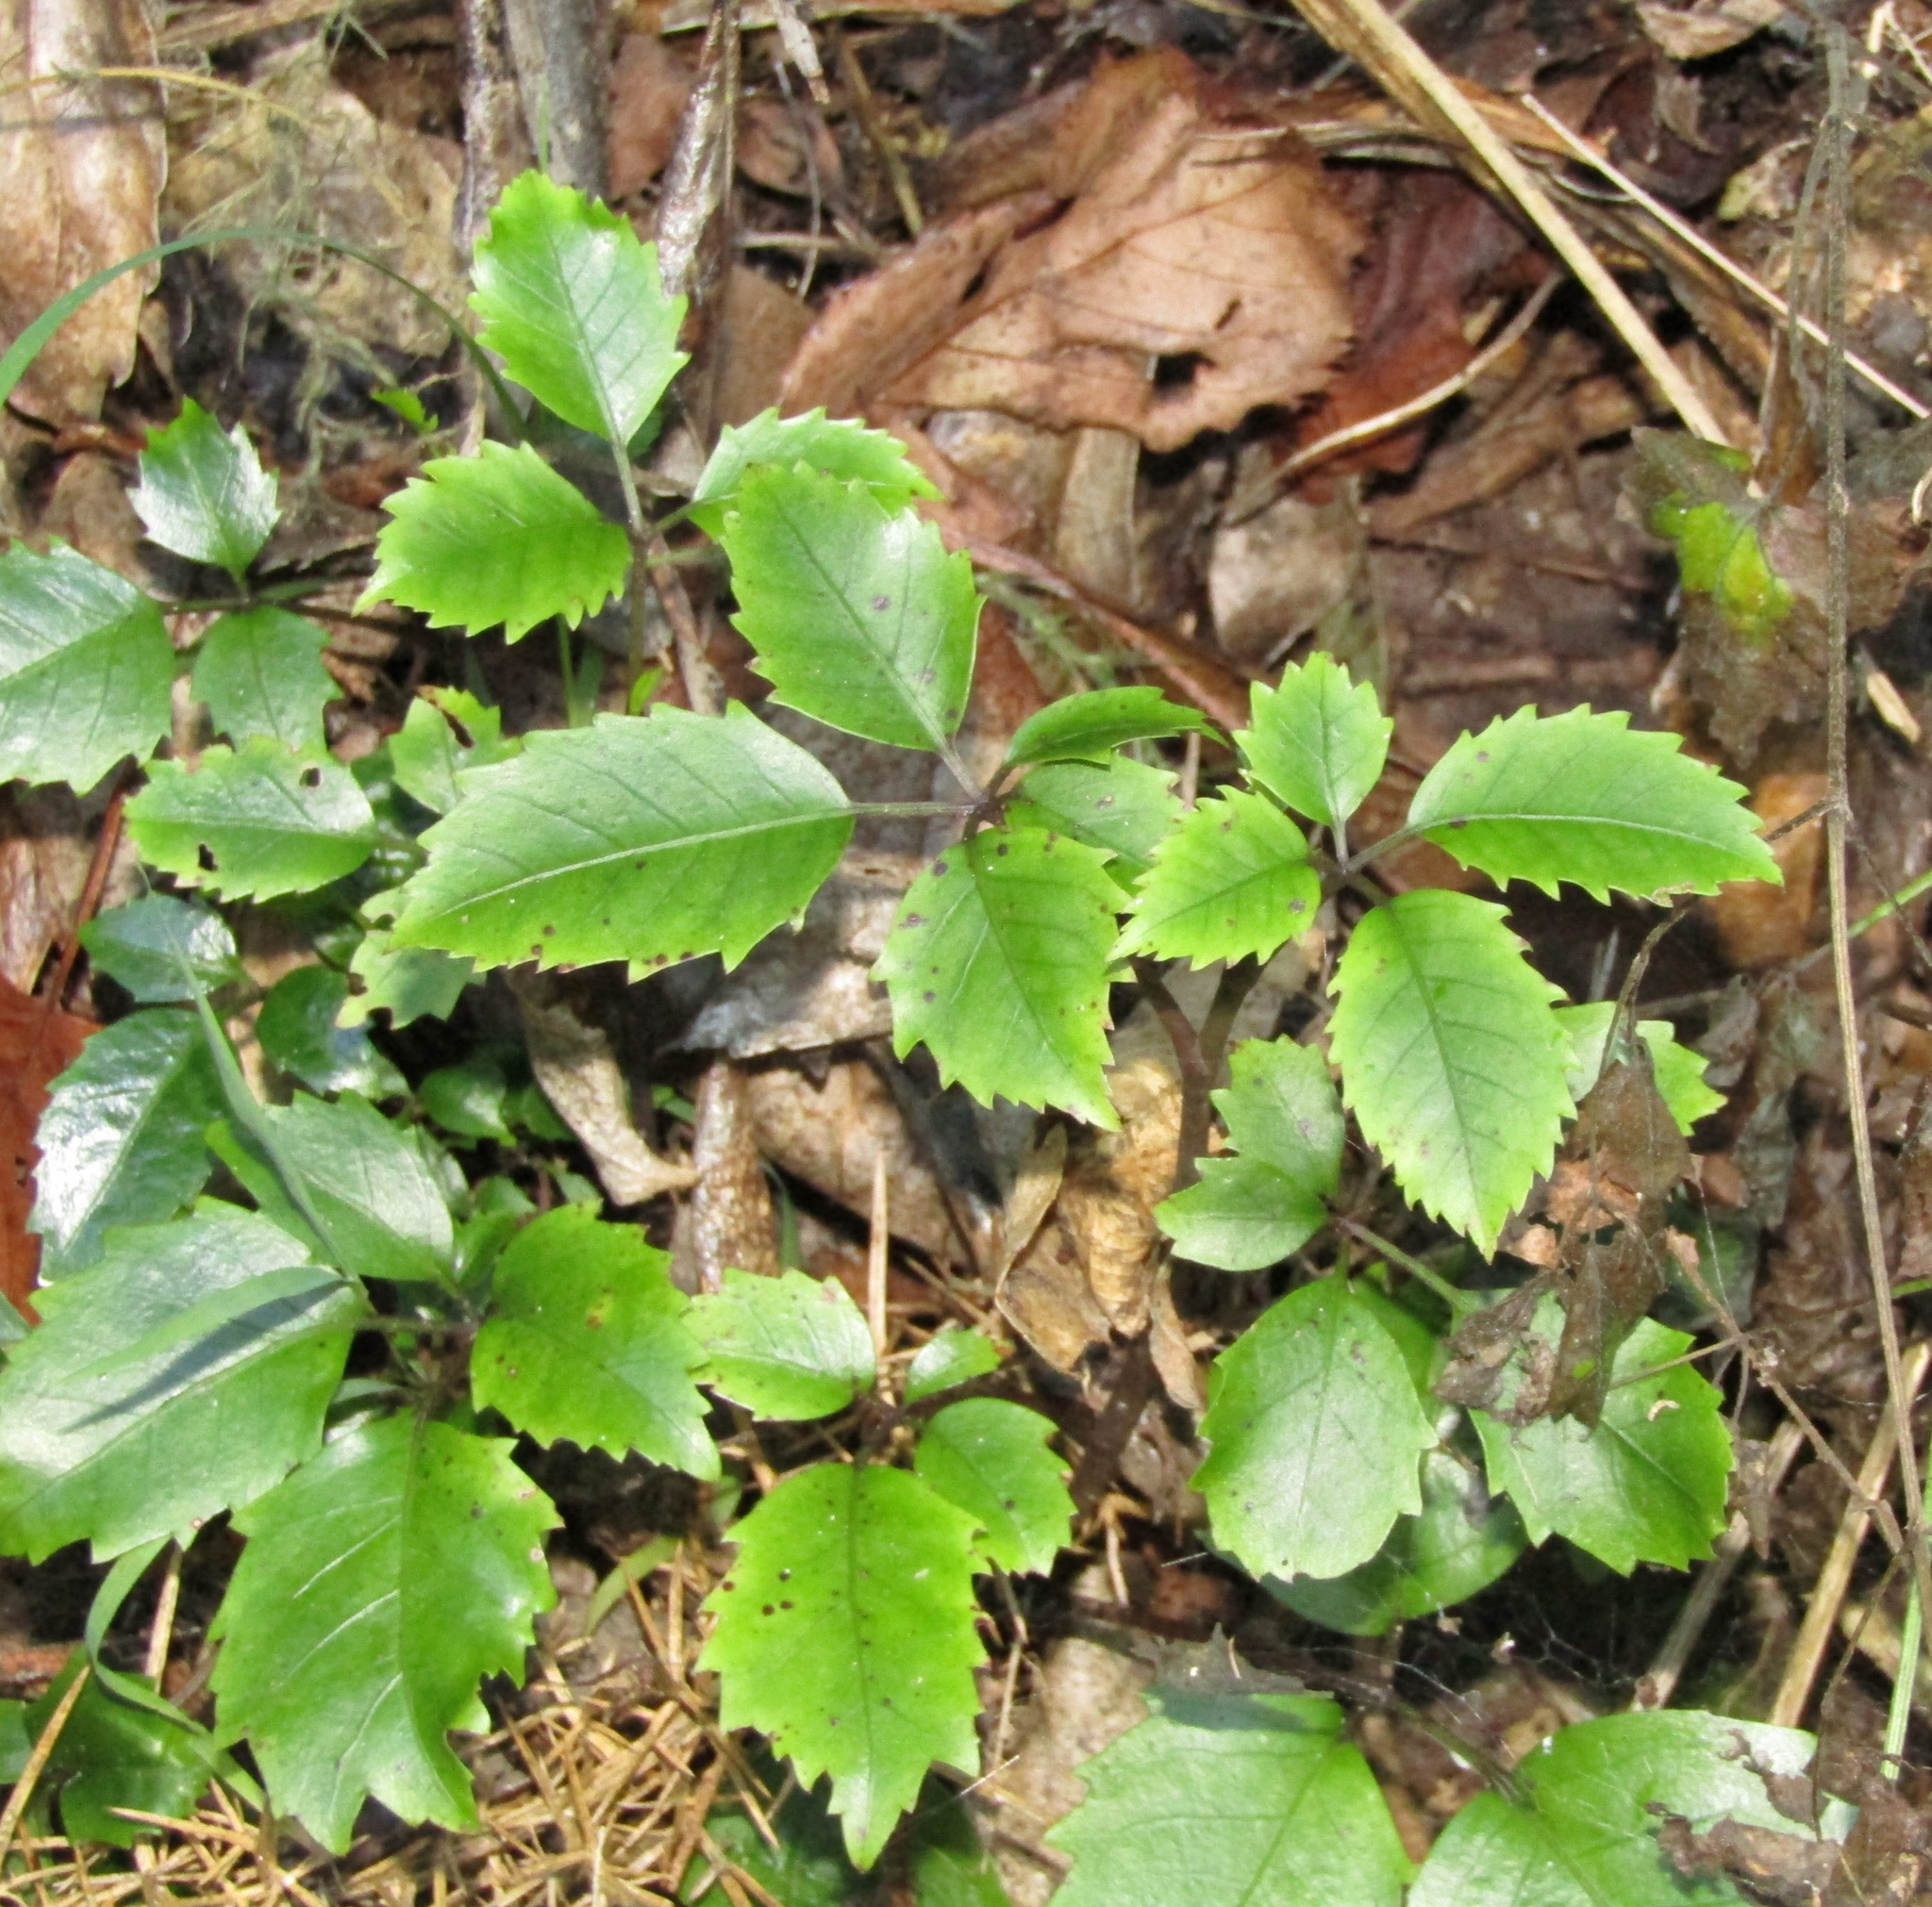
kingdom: Plantae
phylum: Tracheophyta
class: Magnoliopsida
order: Apiales
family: Araliaceae
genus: Neopanax
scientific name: Neopanax arboreus
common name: Five-fingers
